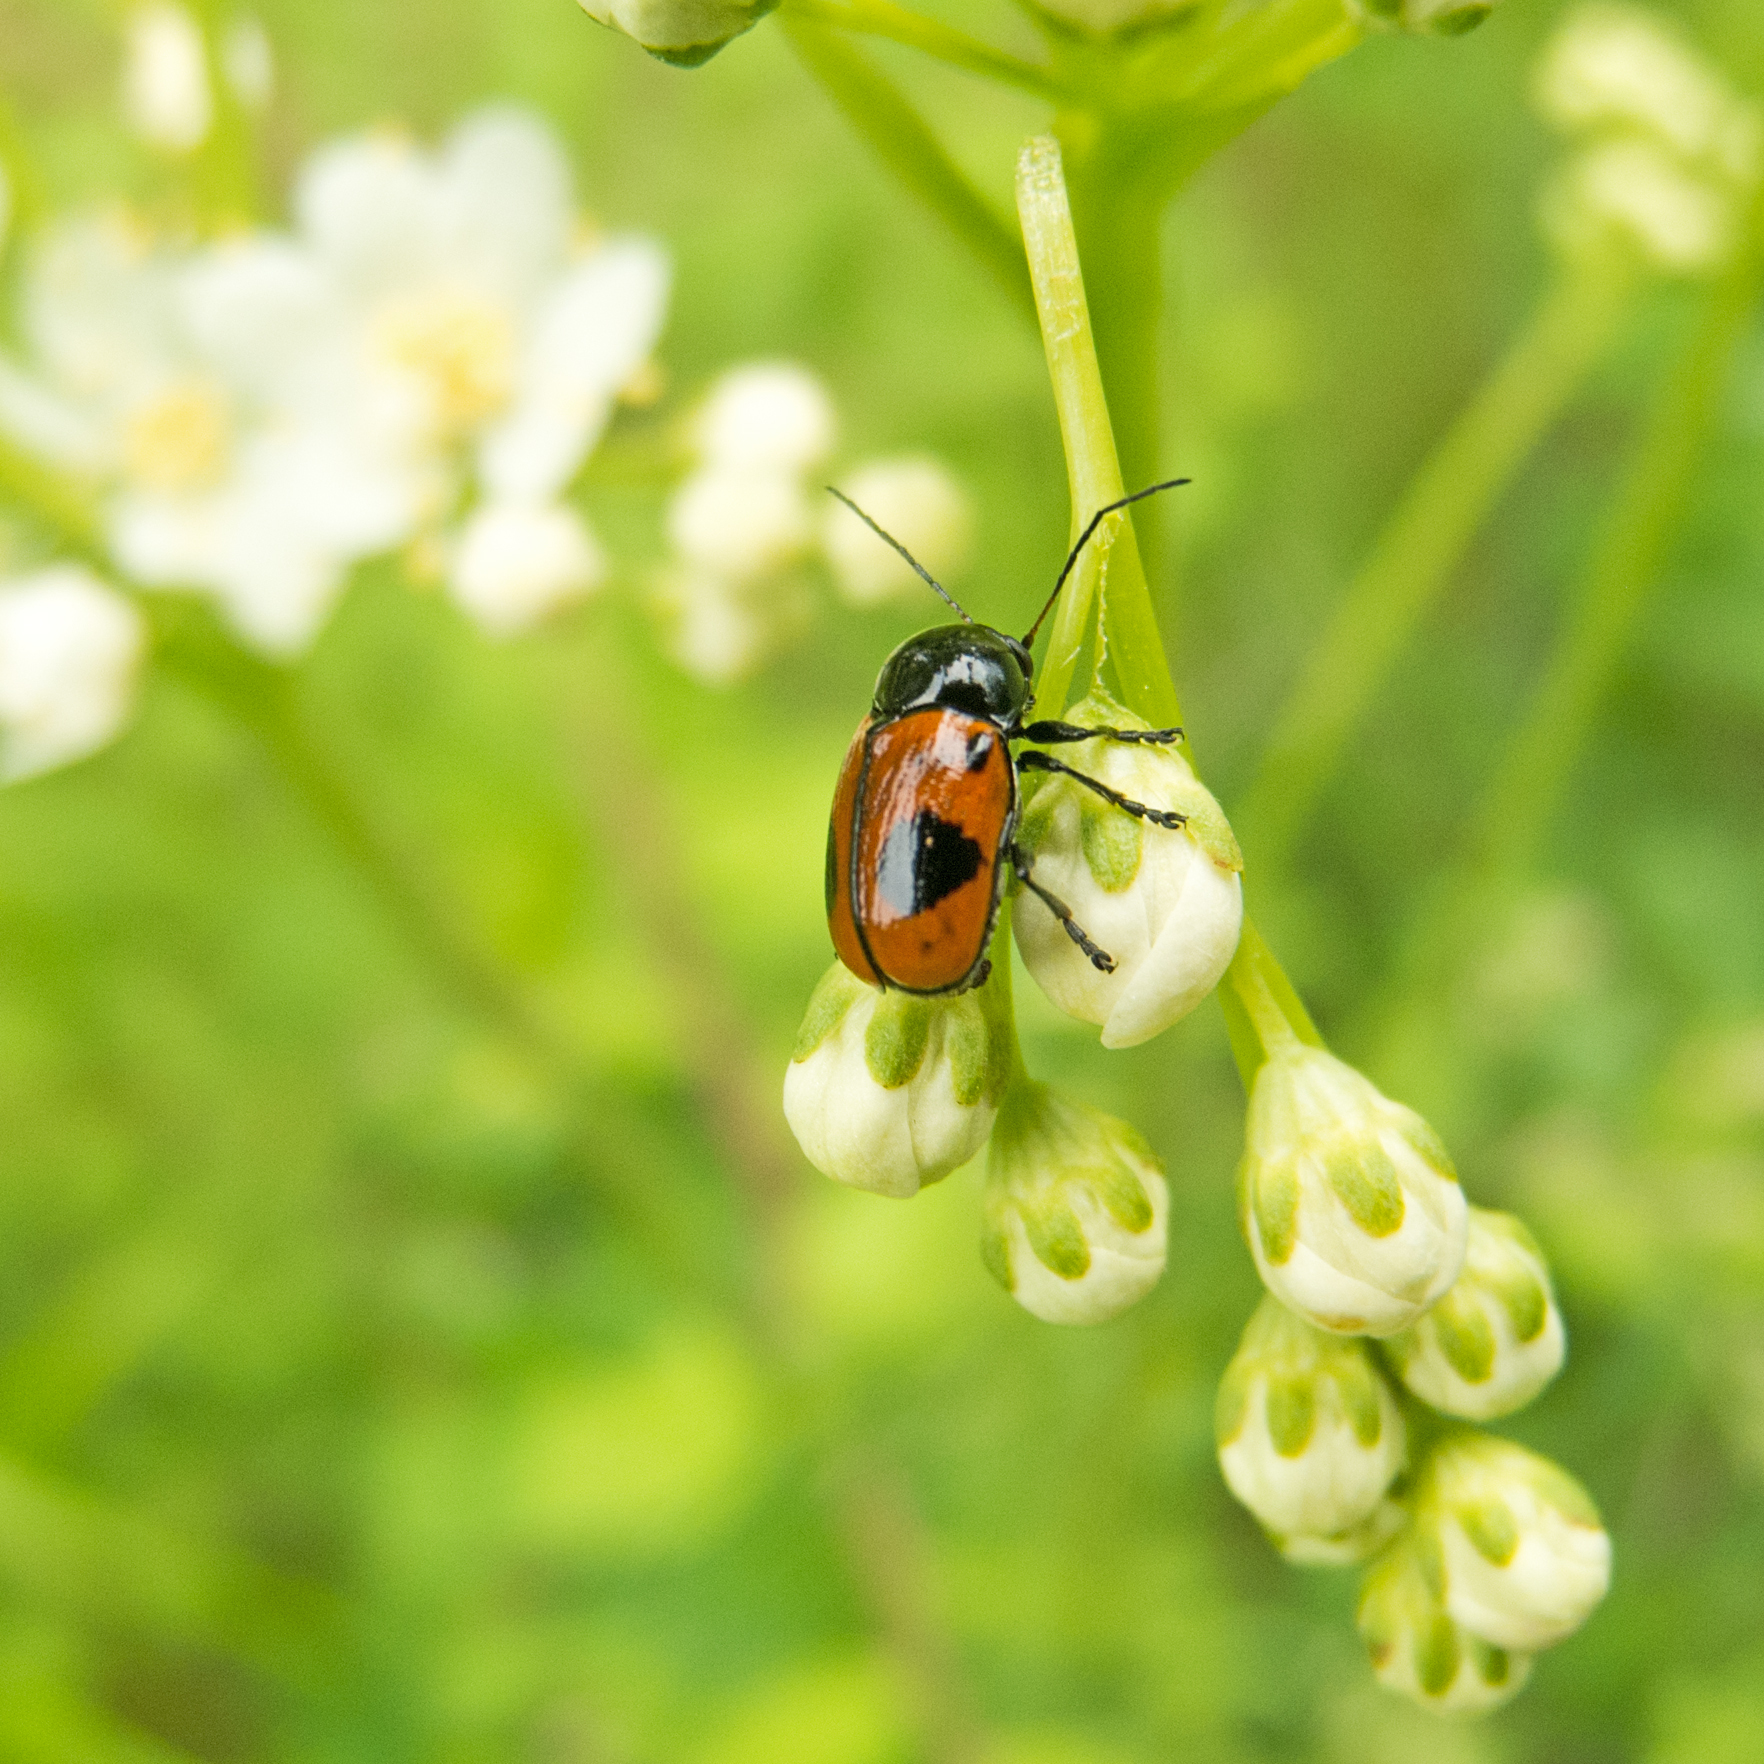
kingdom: Animalia
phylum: Arthropoda
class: Insecta
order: Coleoptera
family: Chrysomelidae
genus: Chiridopsis
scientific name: Chiridopsis bipunctata
